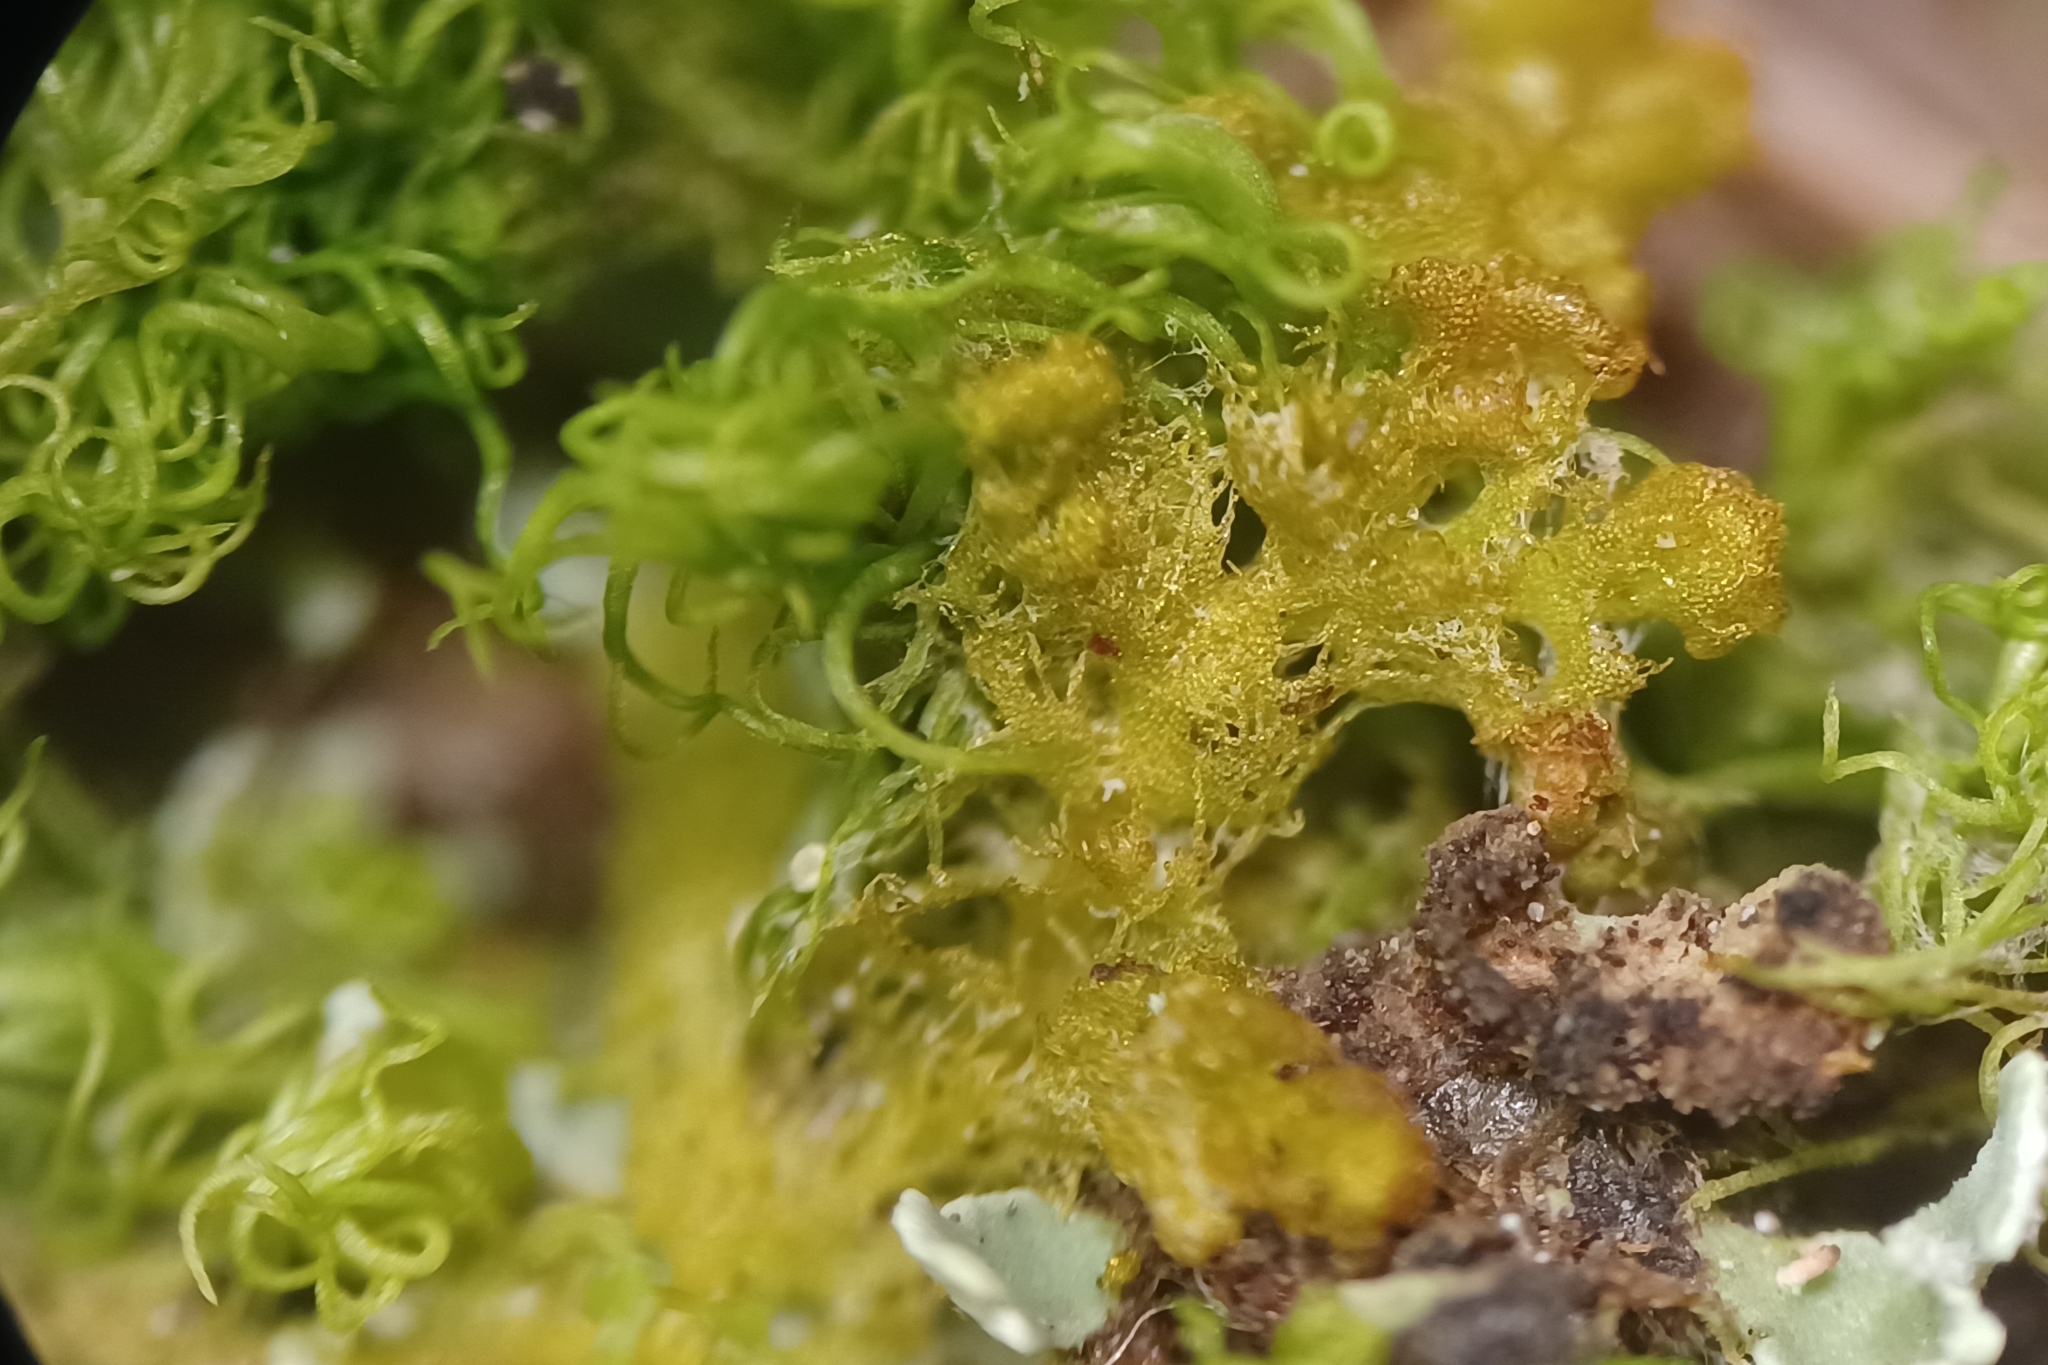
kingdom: Plantae
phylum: Marchantiophyta
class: Jungermanniopsida
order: Ptilidiales
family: Ptilidiaceae
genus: Ptilidium
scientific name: Ptilidium pulcherrimum
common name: Tree fringewort
